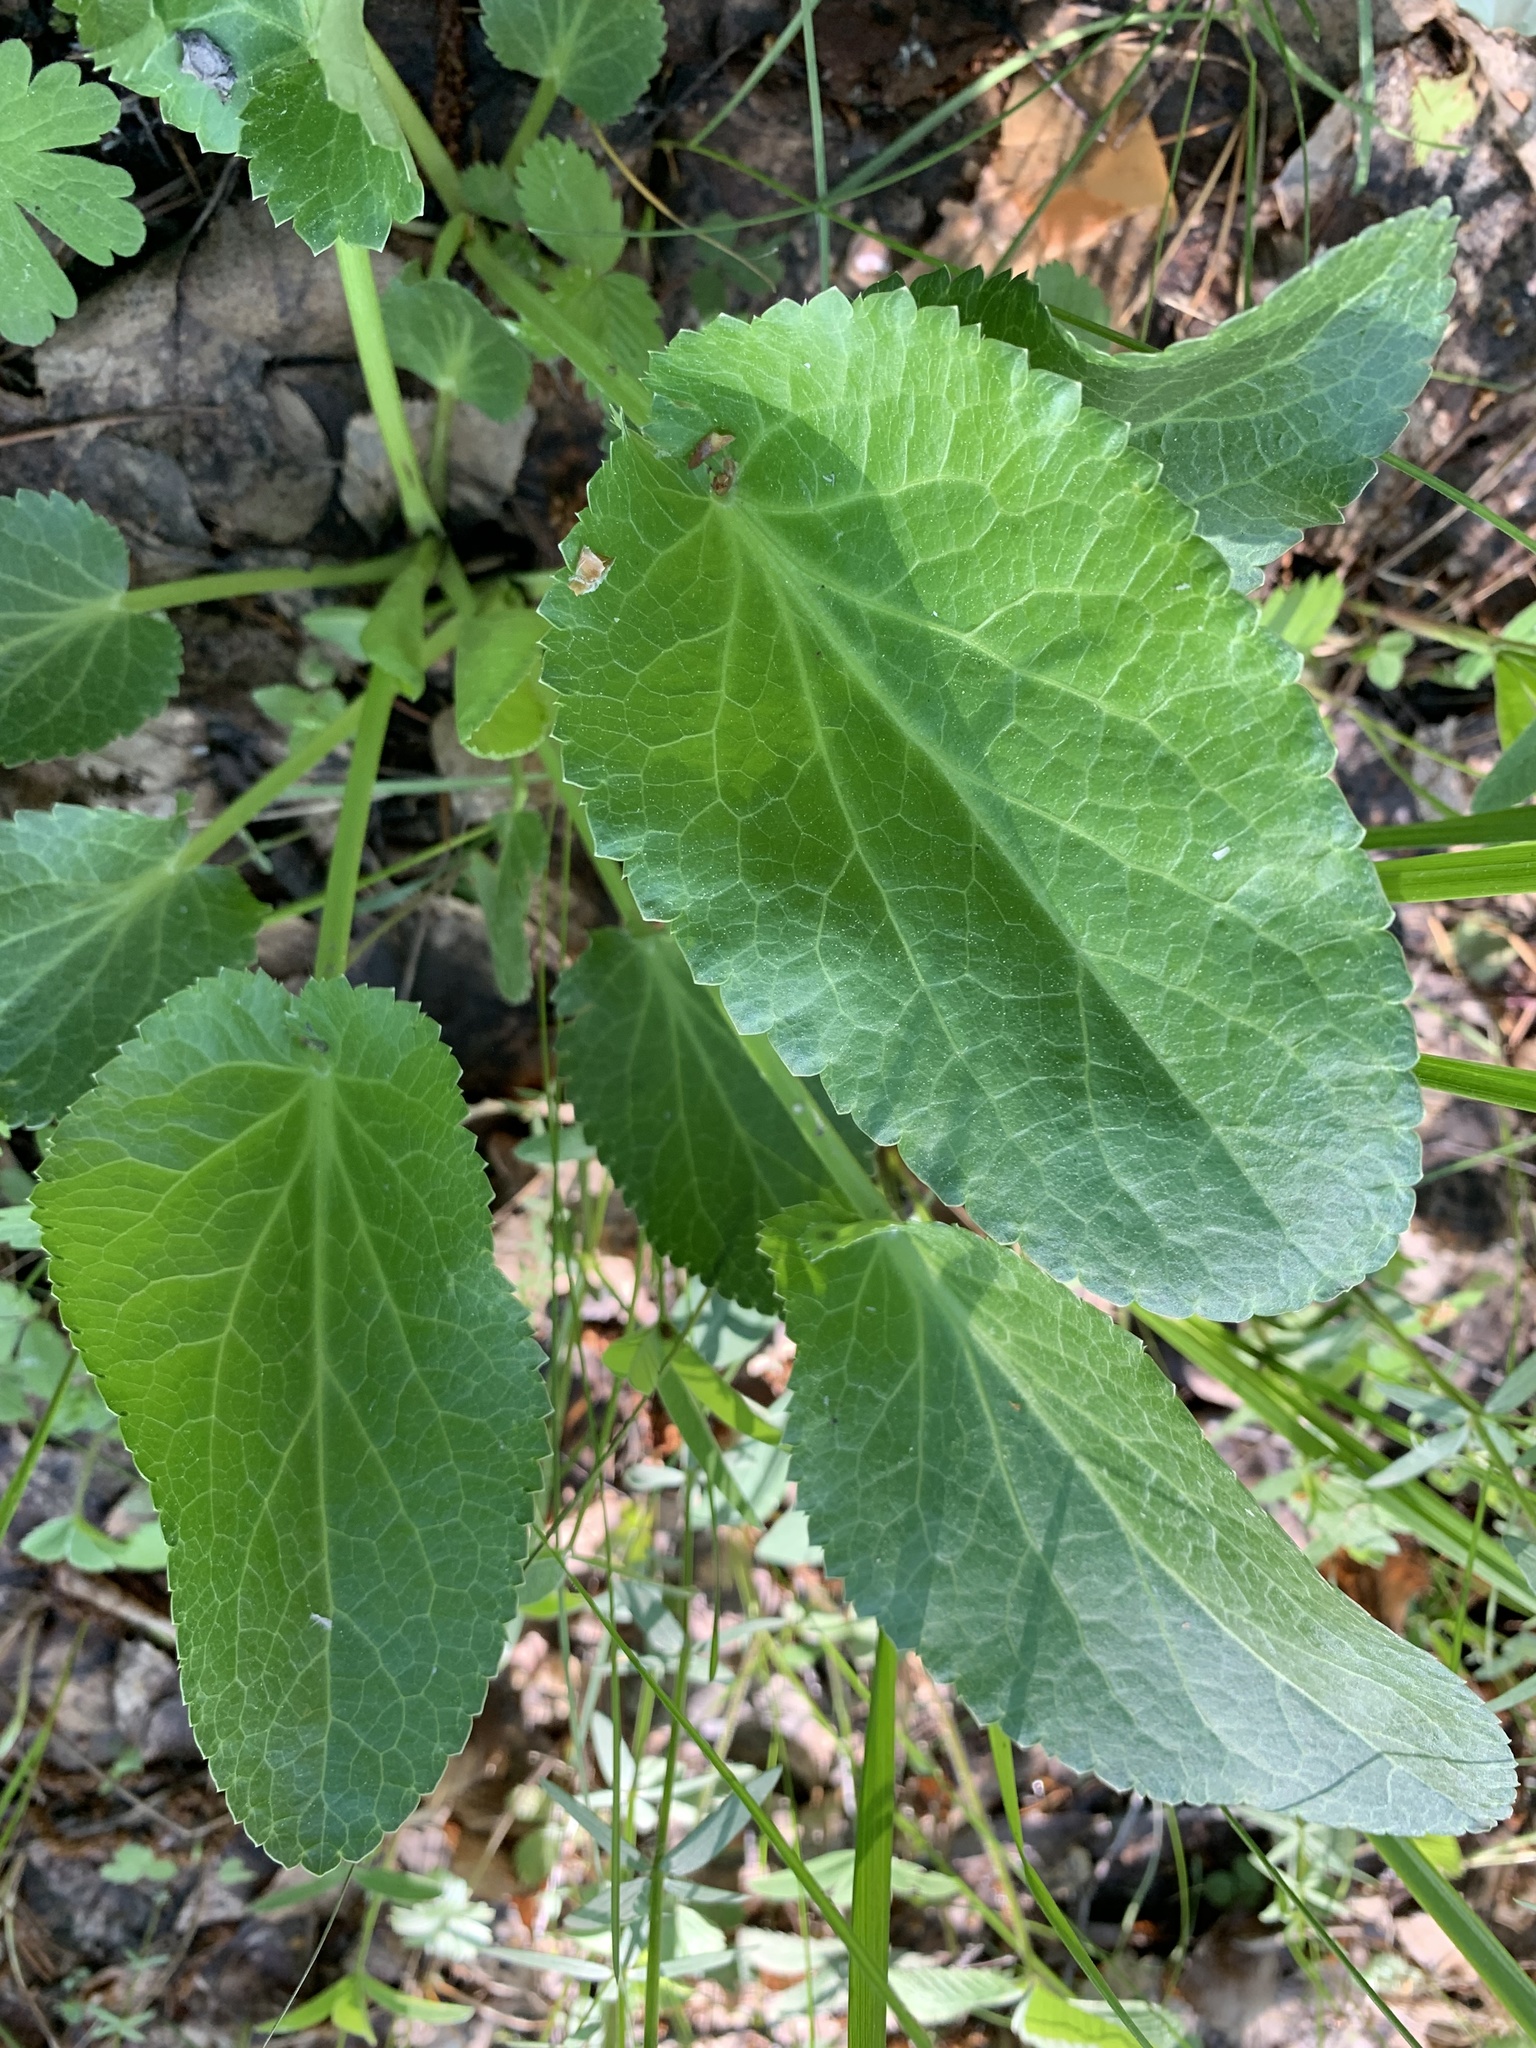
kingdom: Plantae
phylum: Tracheophyta
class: Magnoliopsida
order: Apiales
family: Apiaceae
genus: Eryngium
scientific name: Eryngium planum
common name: Blue eryngo
